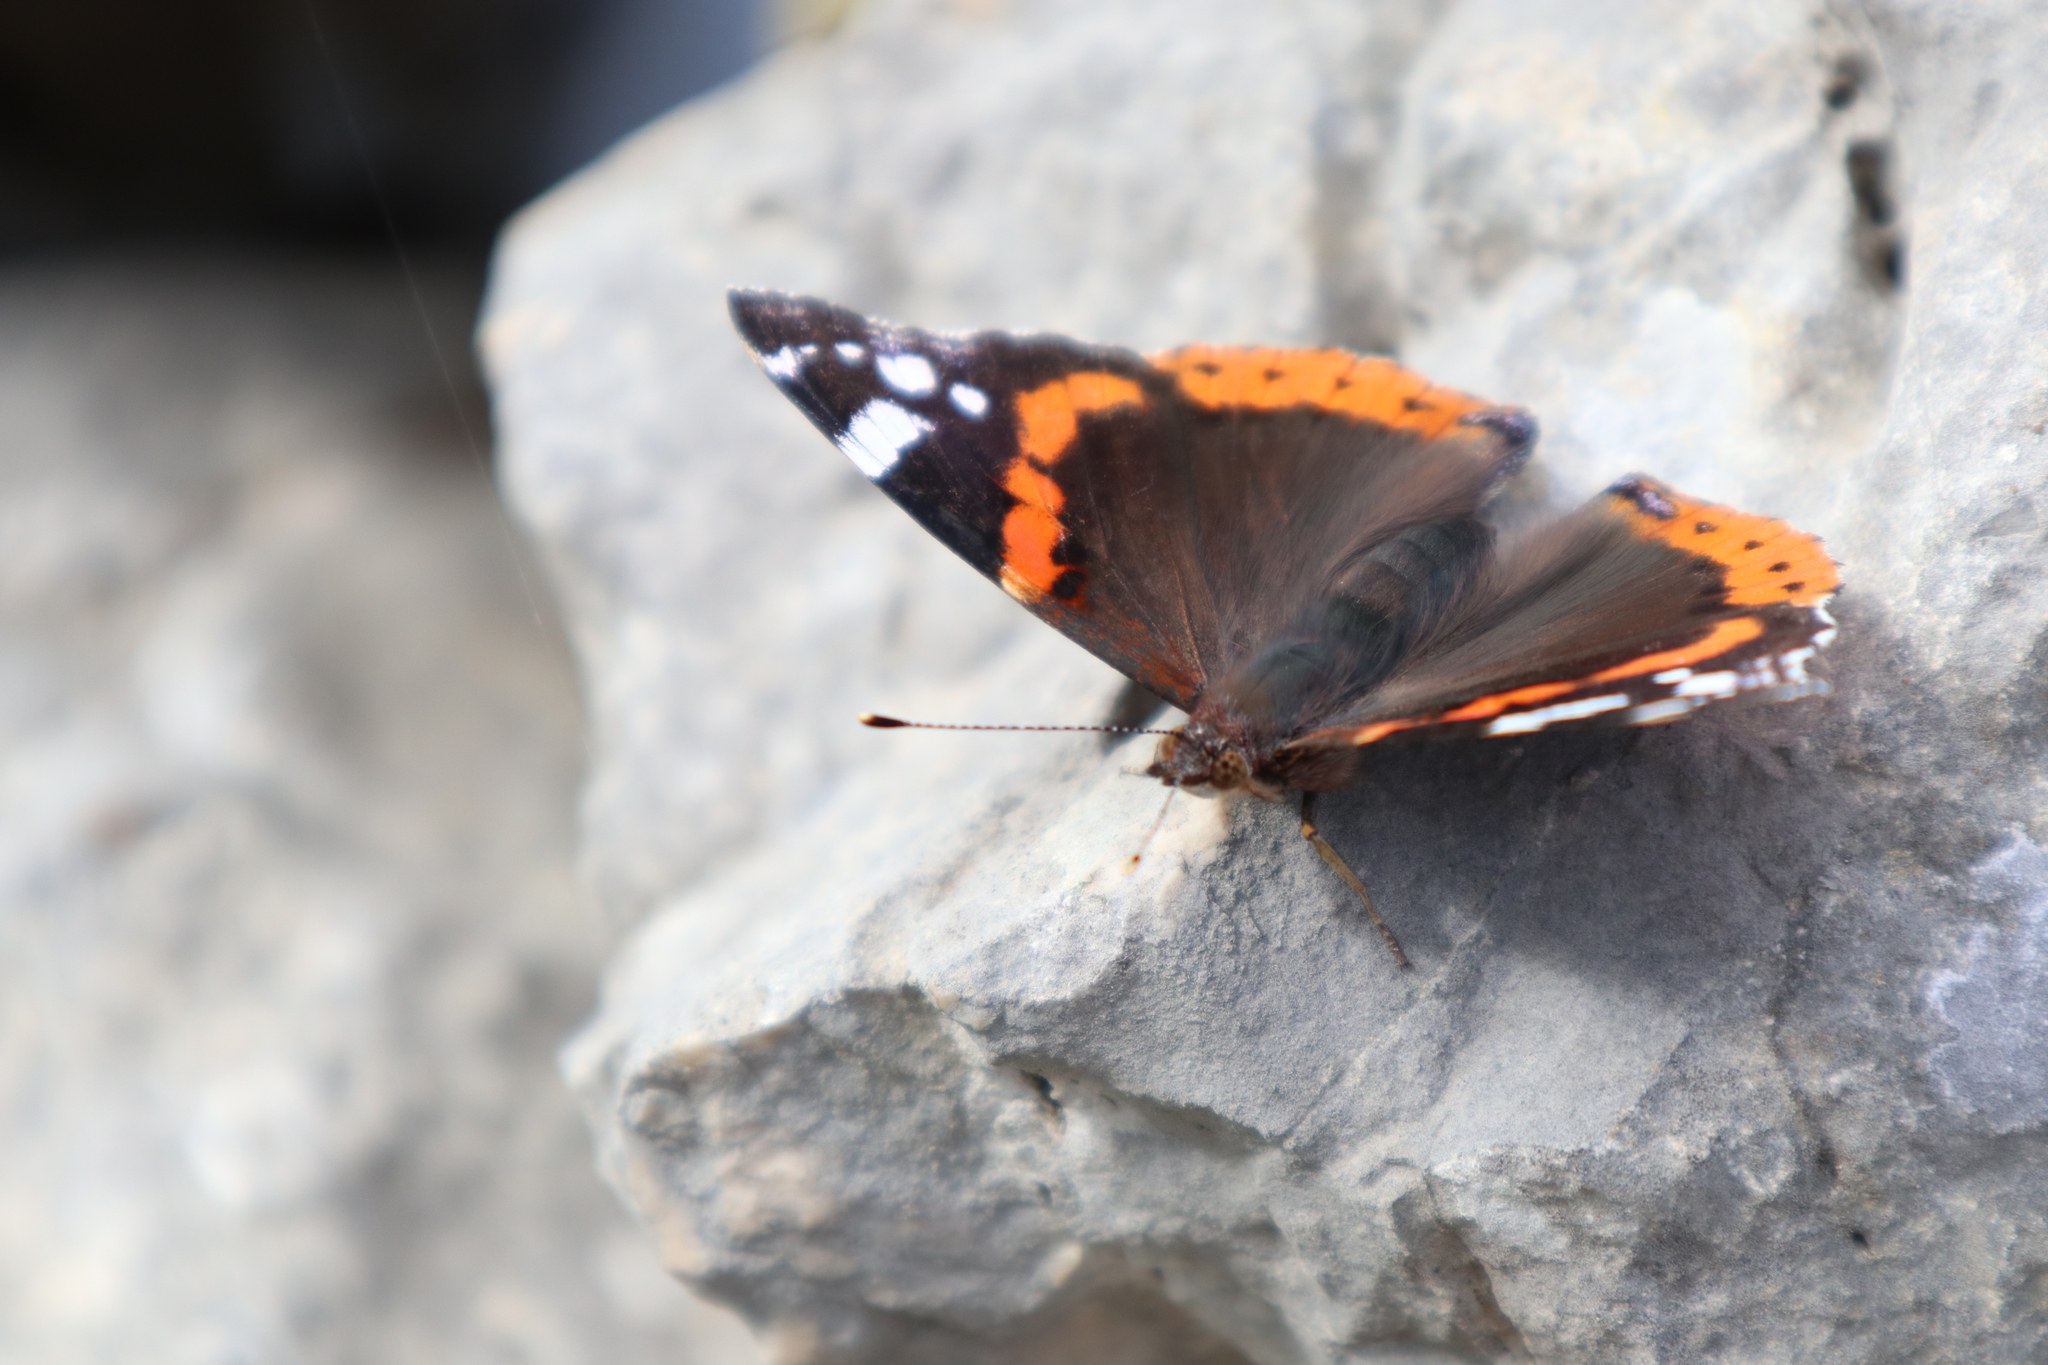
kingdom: Animalia
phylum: Arthropoda
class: Insecta
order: Lepidoptera
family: Nymphalidae
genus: Vanessa
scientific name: Vanessa atalanta
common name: Red admiral
